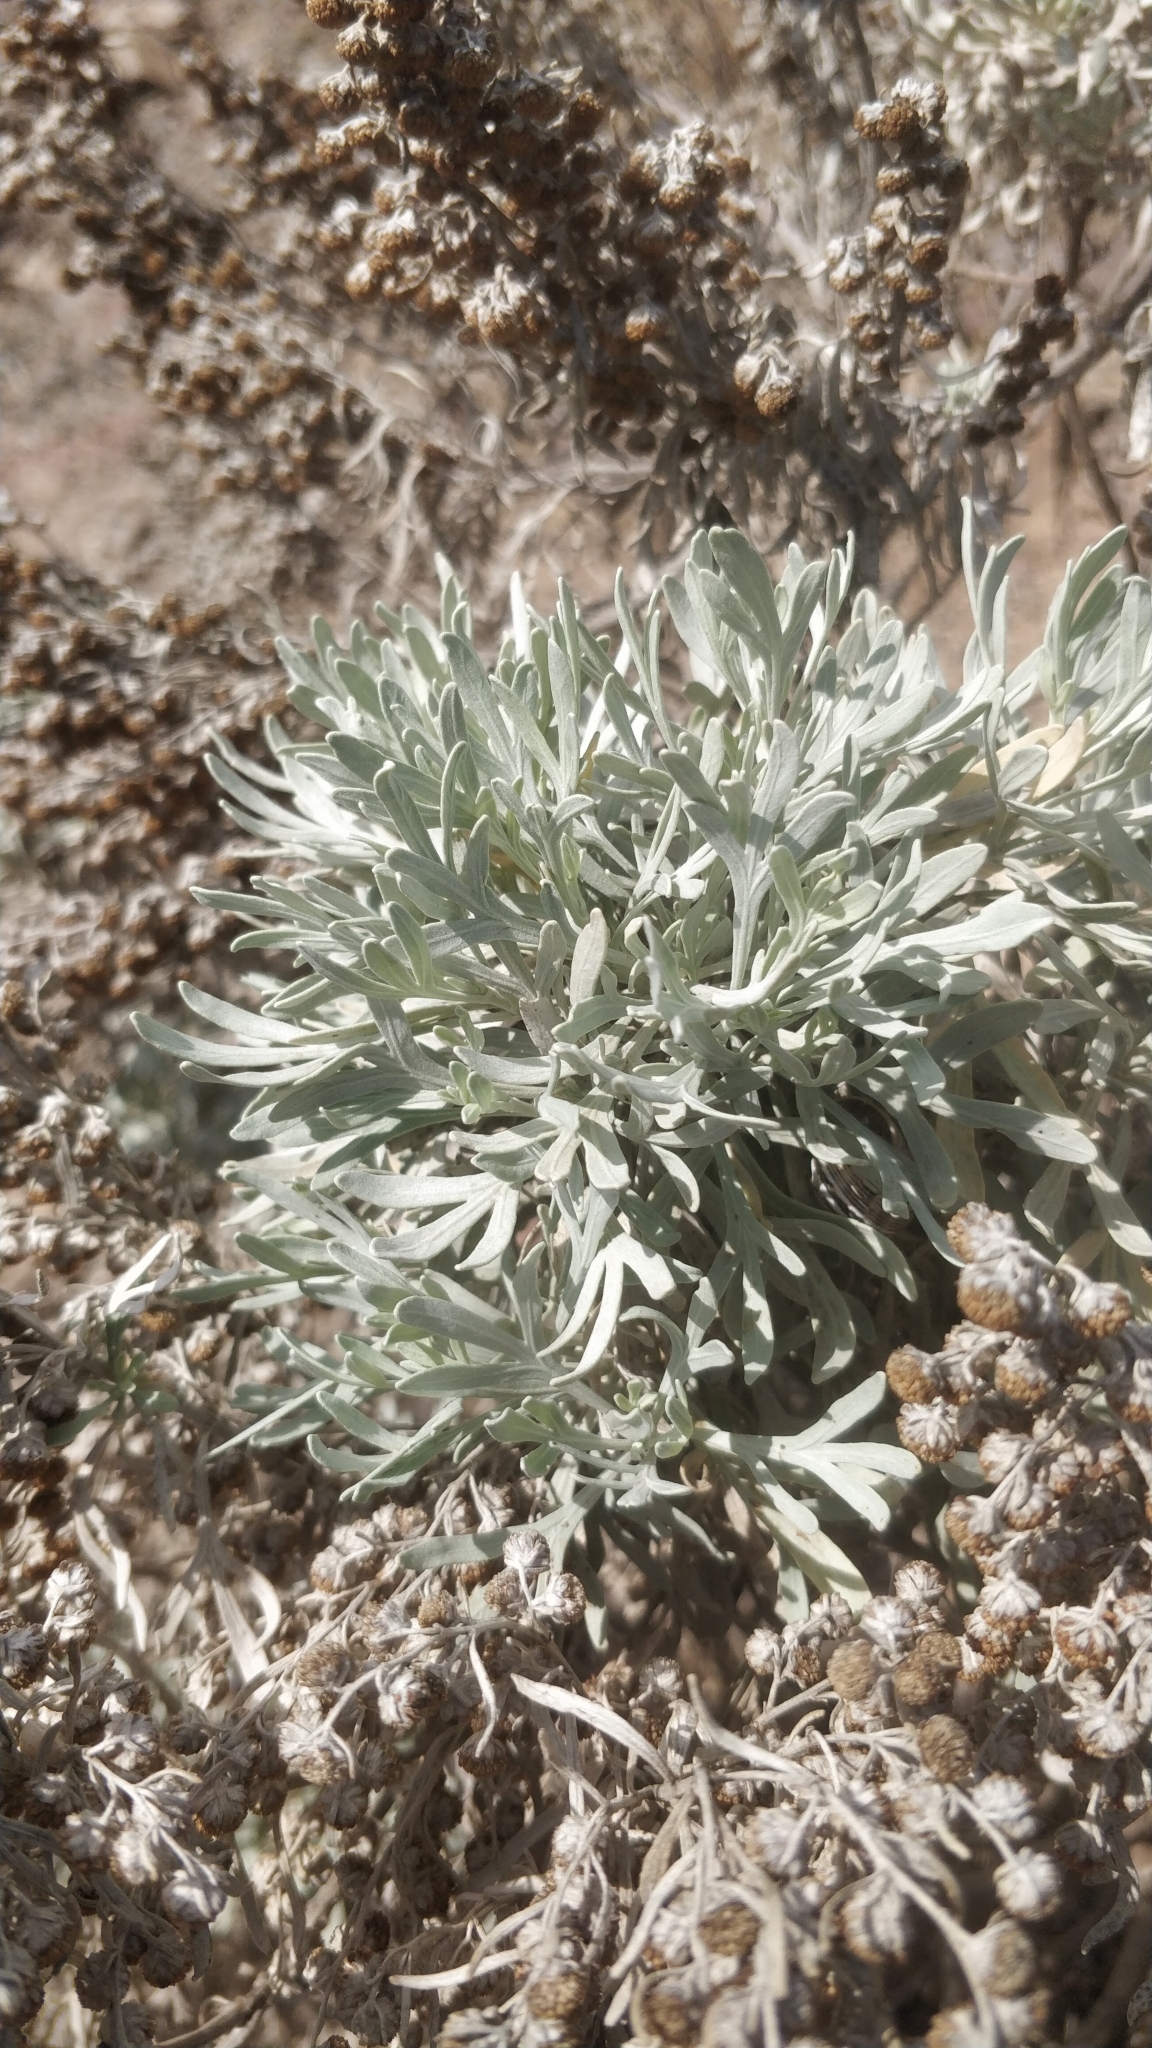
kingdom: Plantae
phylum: Tracheophyta
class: Magnoliopsida
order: Asterales
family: Asteraceae
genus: Artemisia
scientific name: Artemisia argentea
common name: Madeira wormwood
